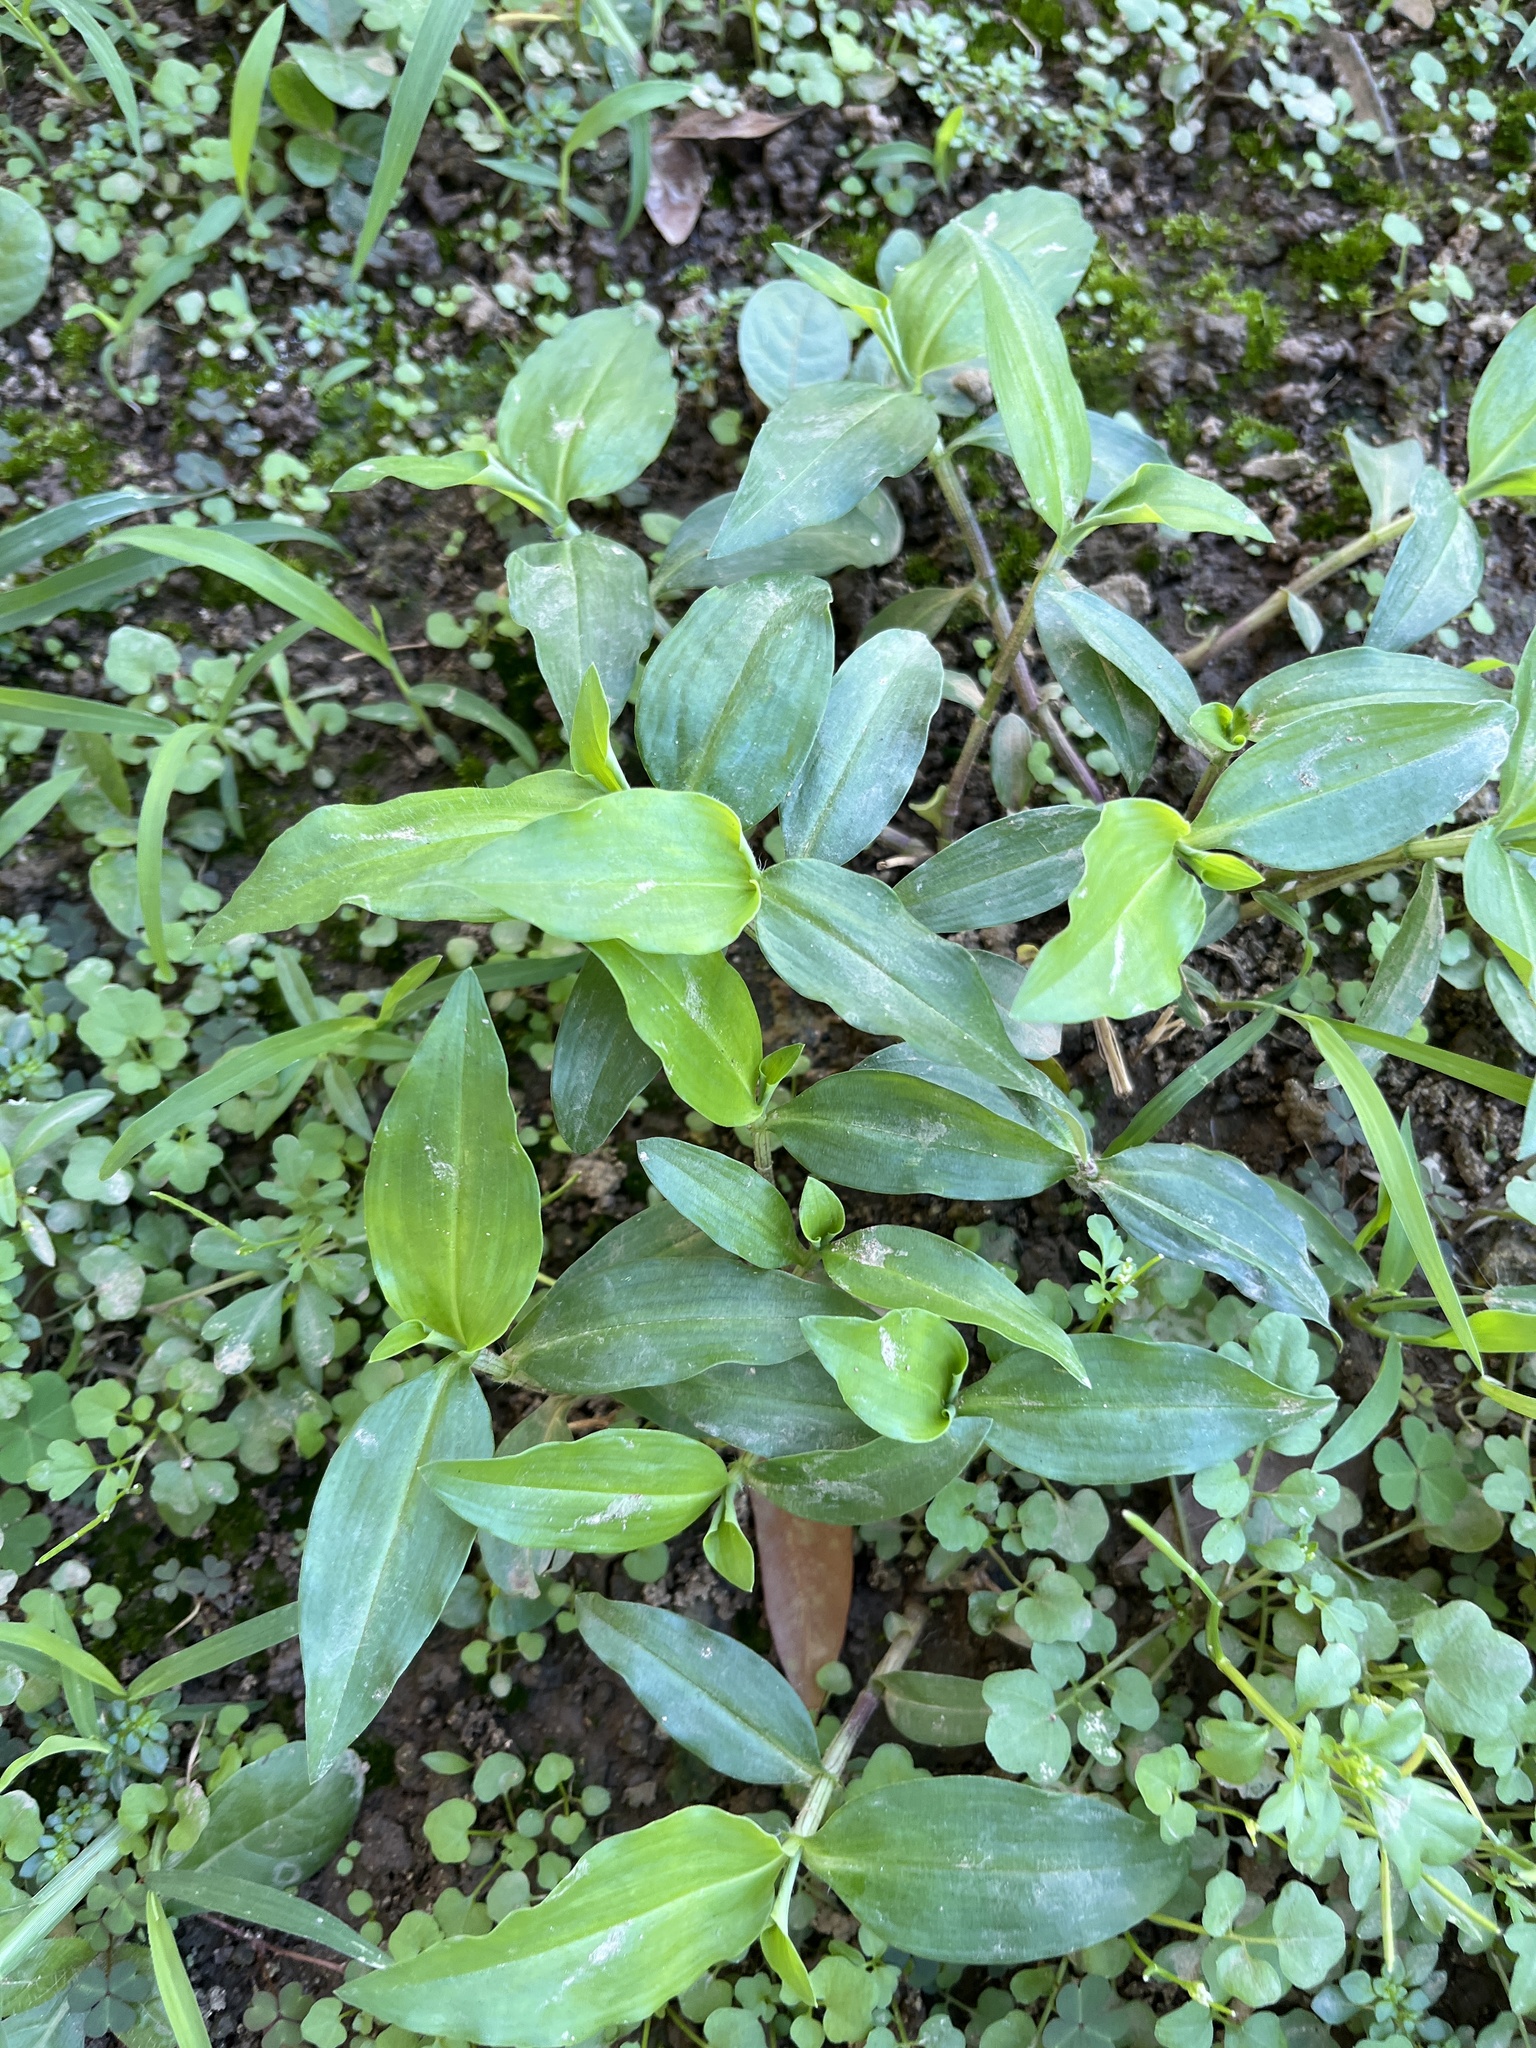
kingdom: Plantae
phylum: Tracheophyta
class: Liliopsida
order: Commelinales
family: Commelinaceae
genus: Commelina
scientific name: Commelina erecta
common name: Blousel blommetjie
